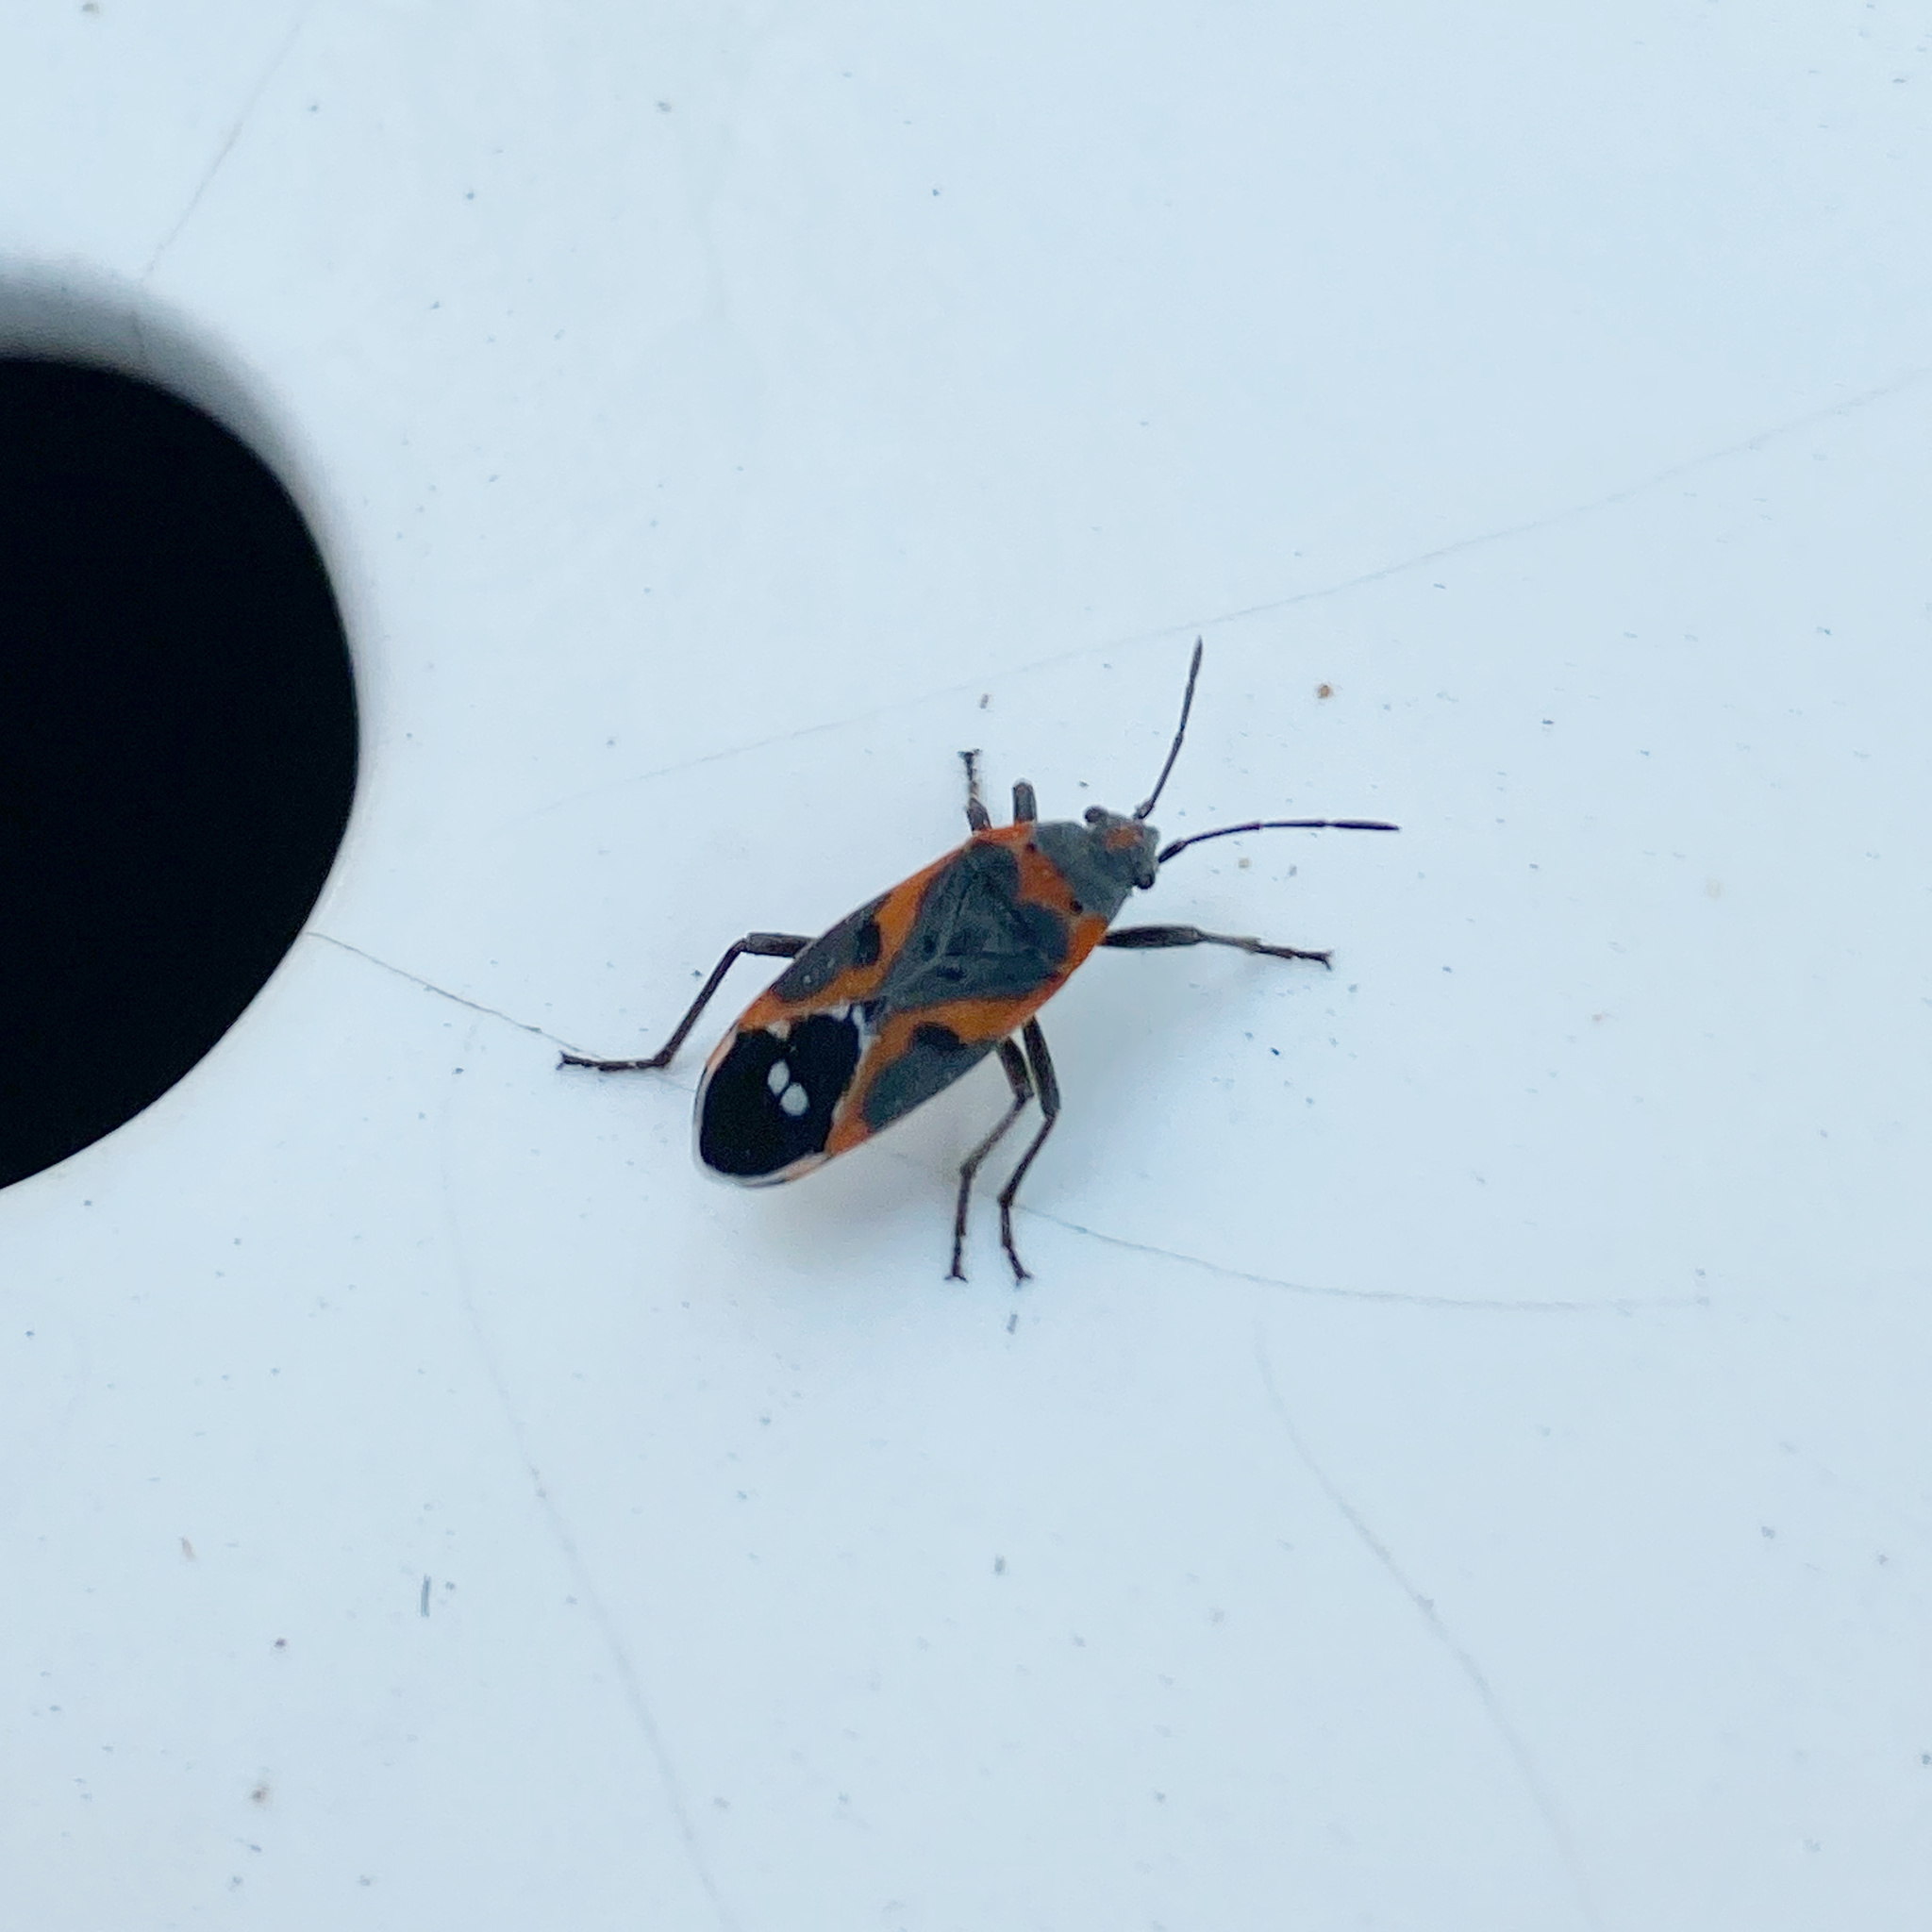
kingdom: Animalia
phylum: Arthropoda
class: Insecta
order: Hemiptera
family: Lygaeidae
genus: Lygaeus
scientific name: Lygaeus kalmii
